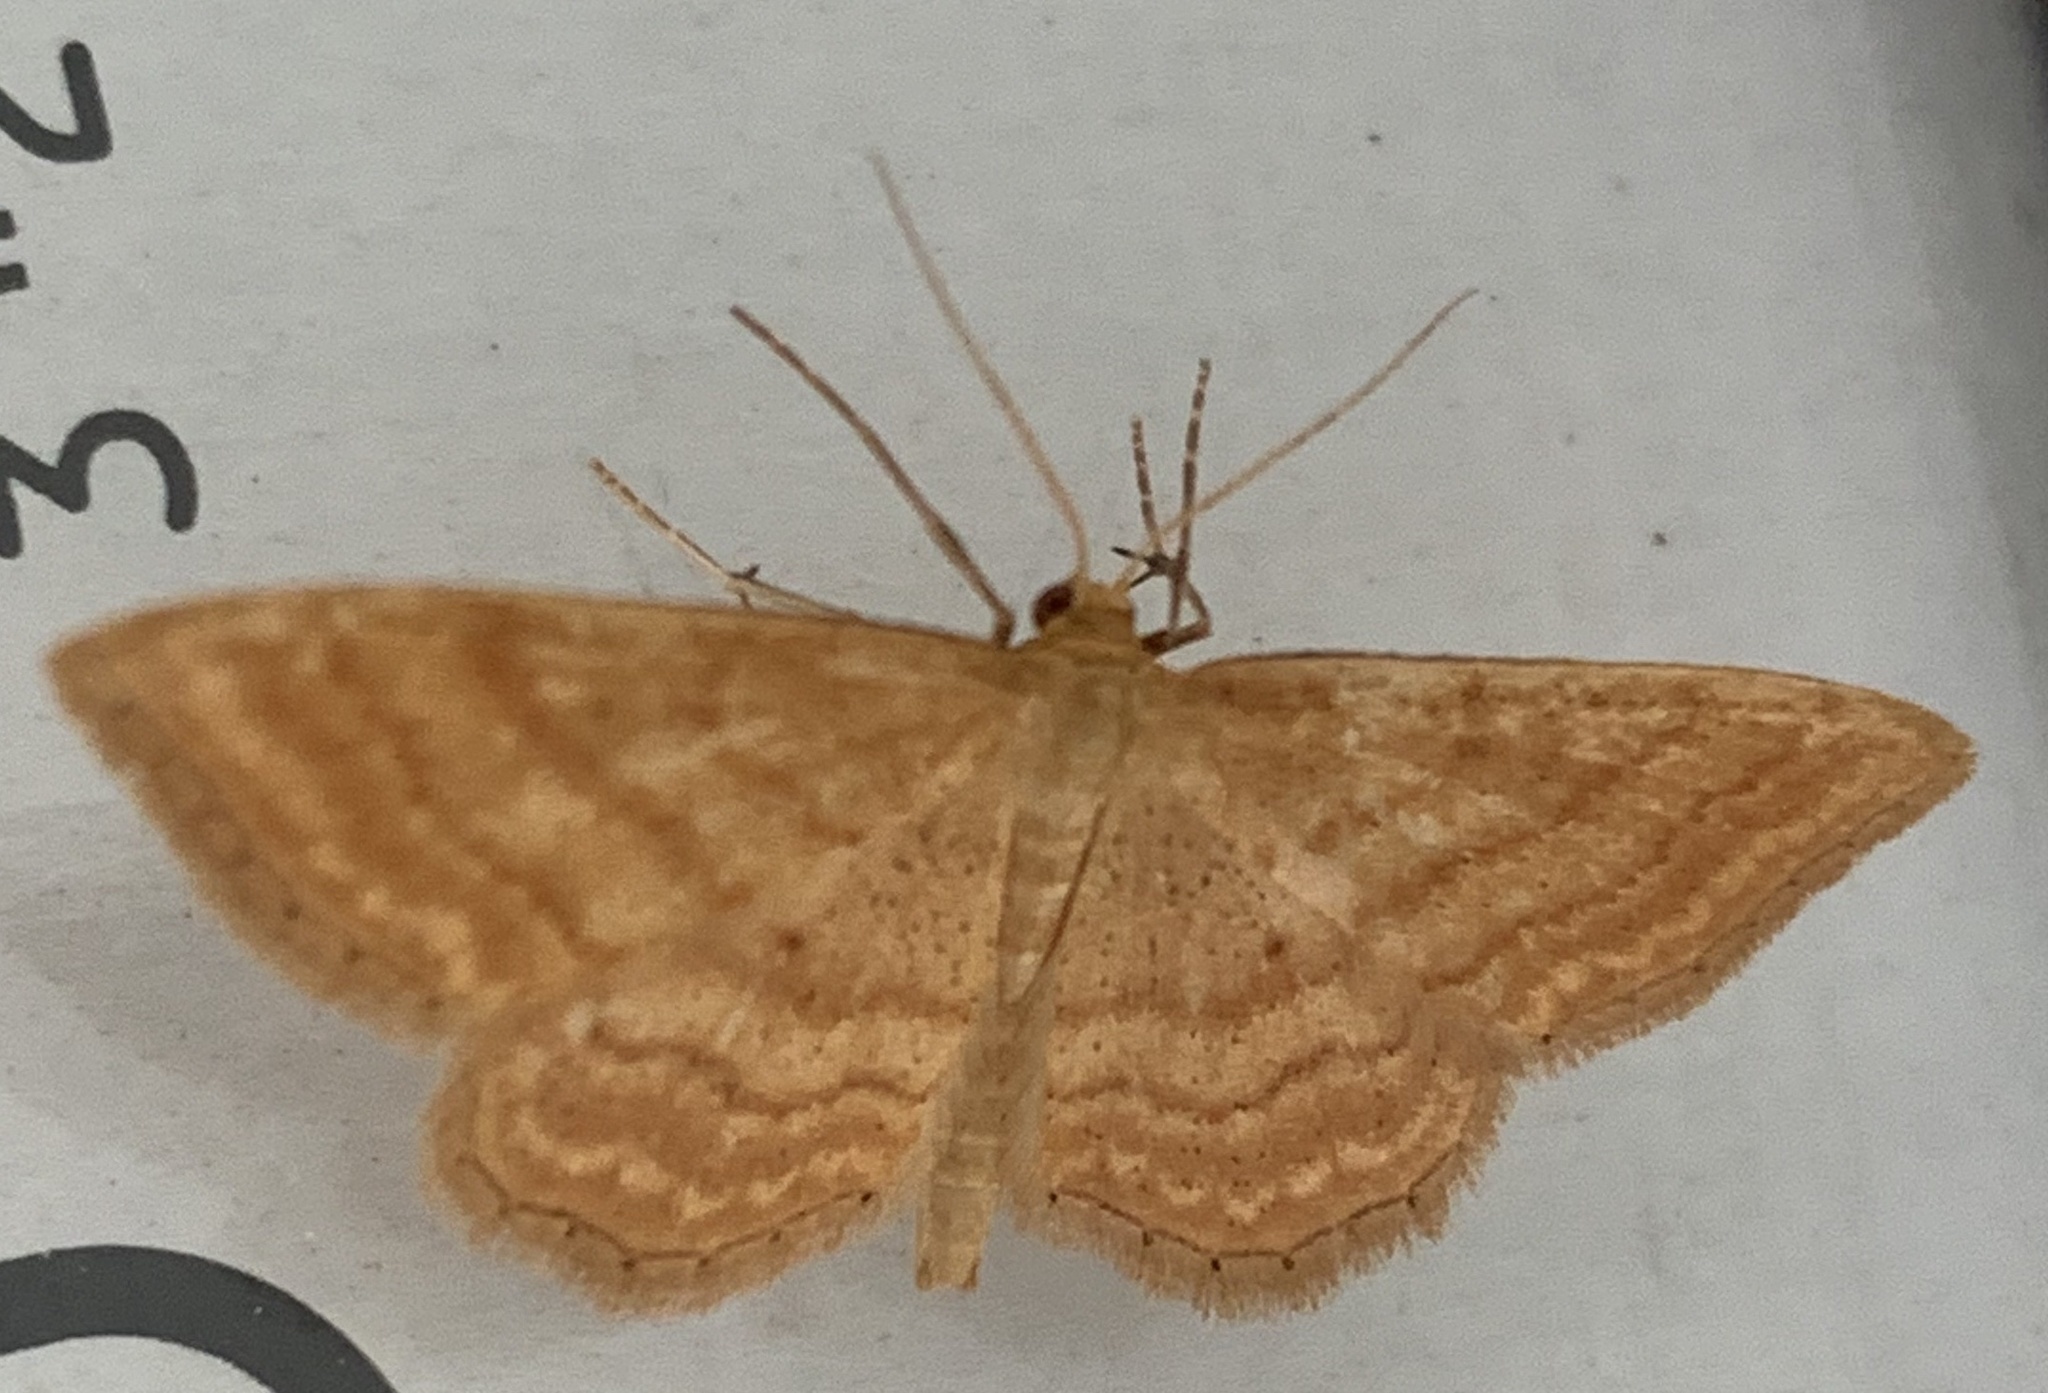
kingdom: Animalia
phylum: Arthropoda
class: Insecta
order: Lepidoptera
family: Geometridae
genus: Idaea
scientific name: Idaea ochrata
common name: Bright wave
